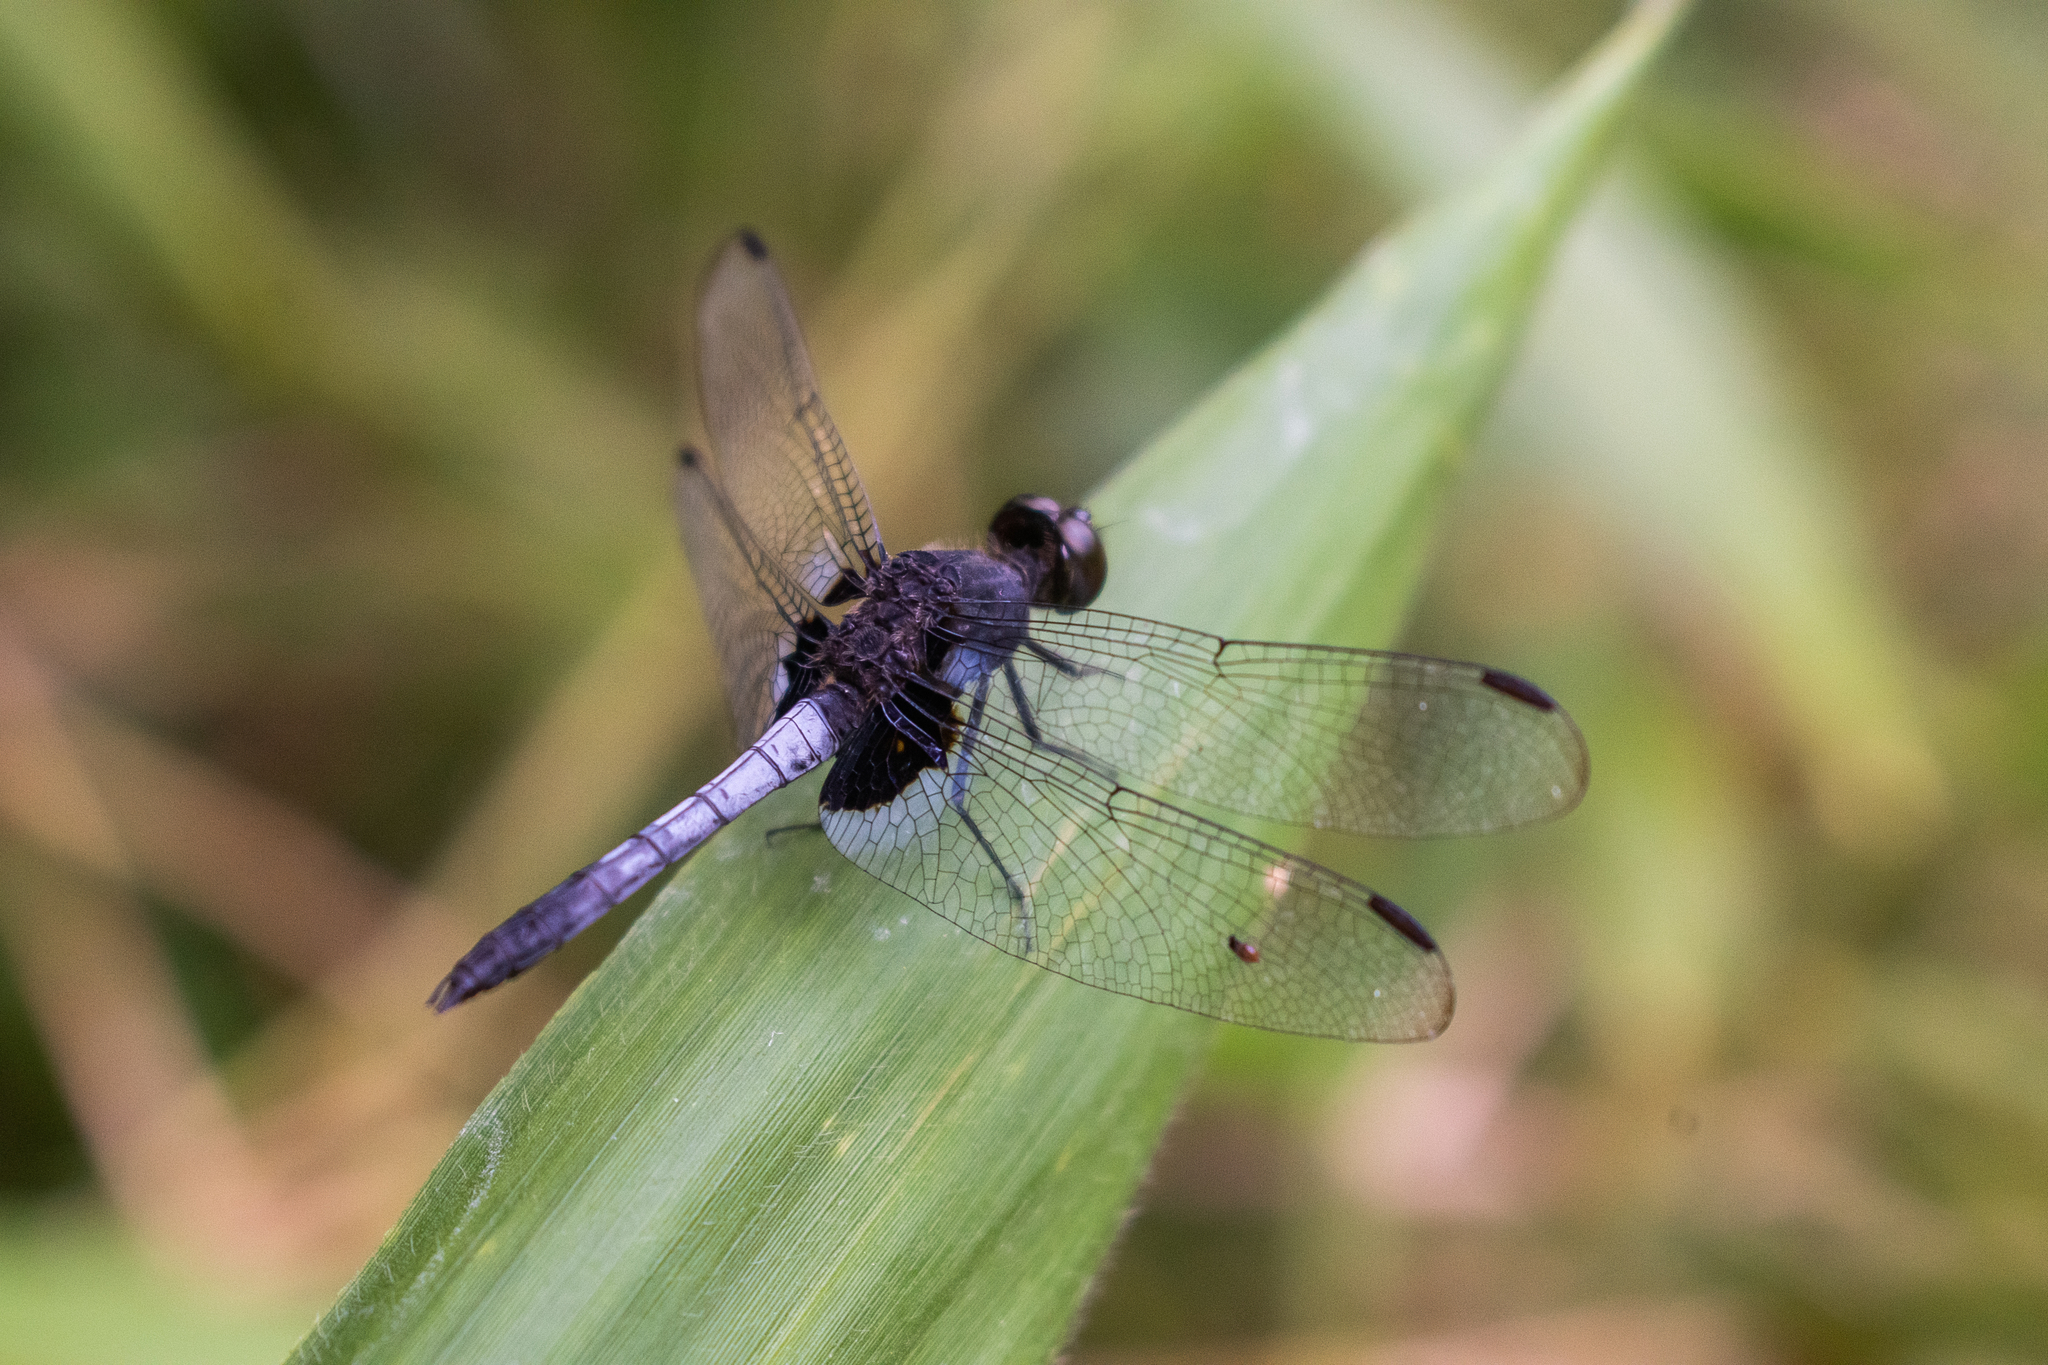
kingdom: Animalia
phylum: Arthropoda
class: Insecta
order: Odonata
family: Libellulidae
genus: Erythrodiplax
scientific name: Erythrodiplax laurentia
